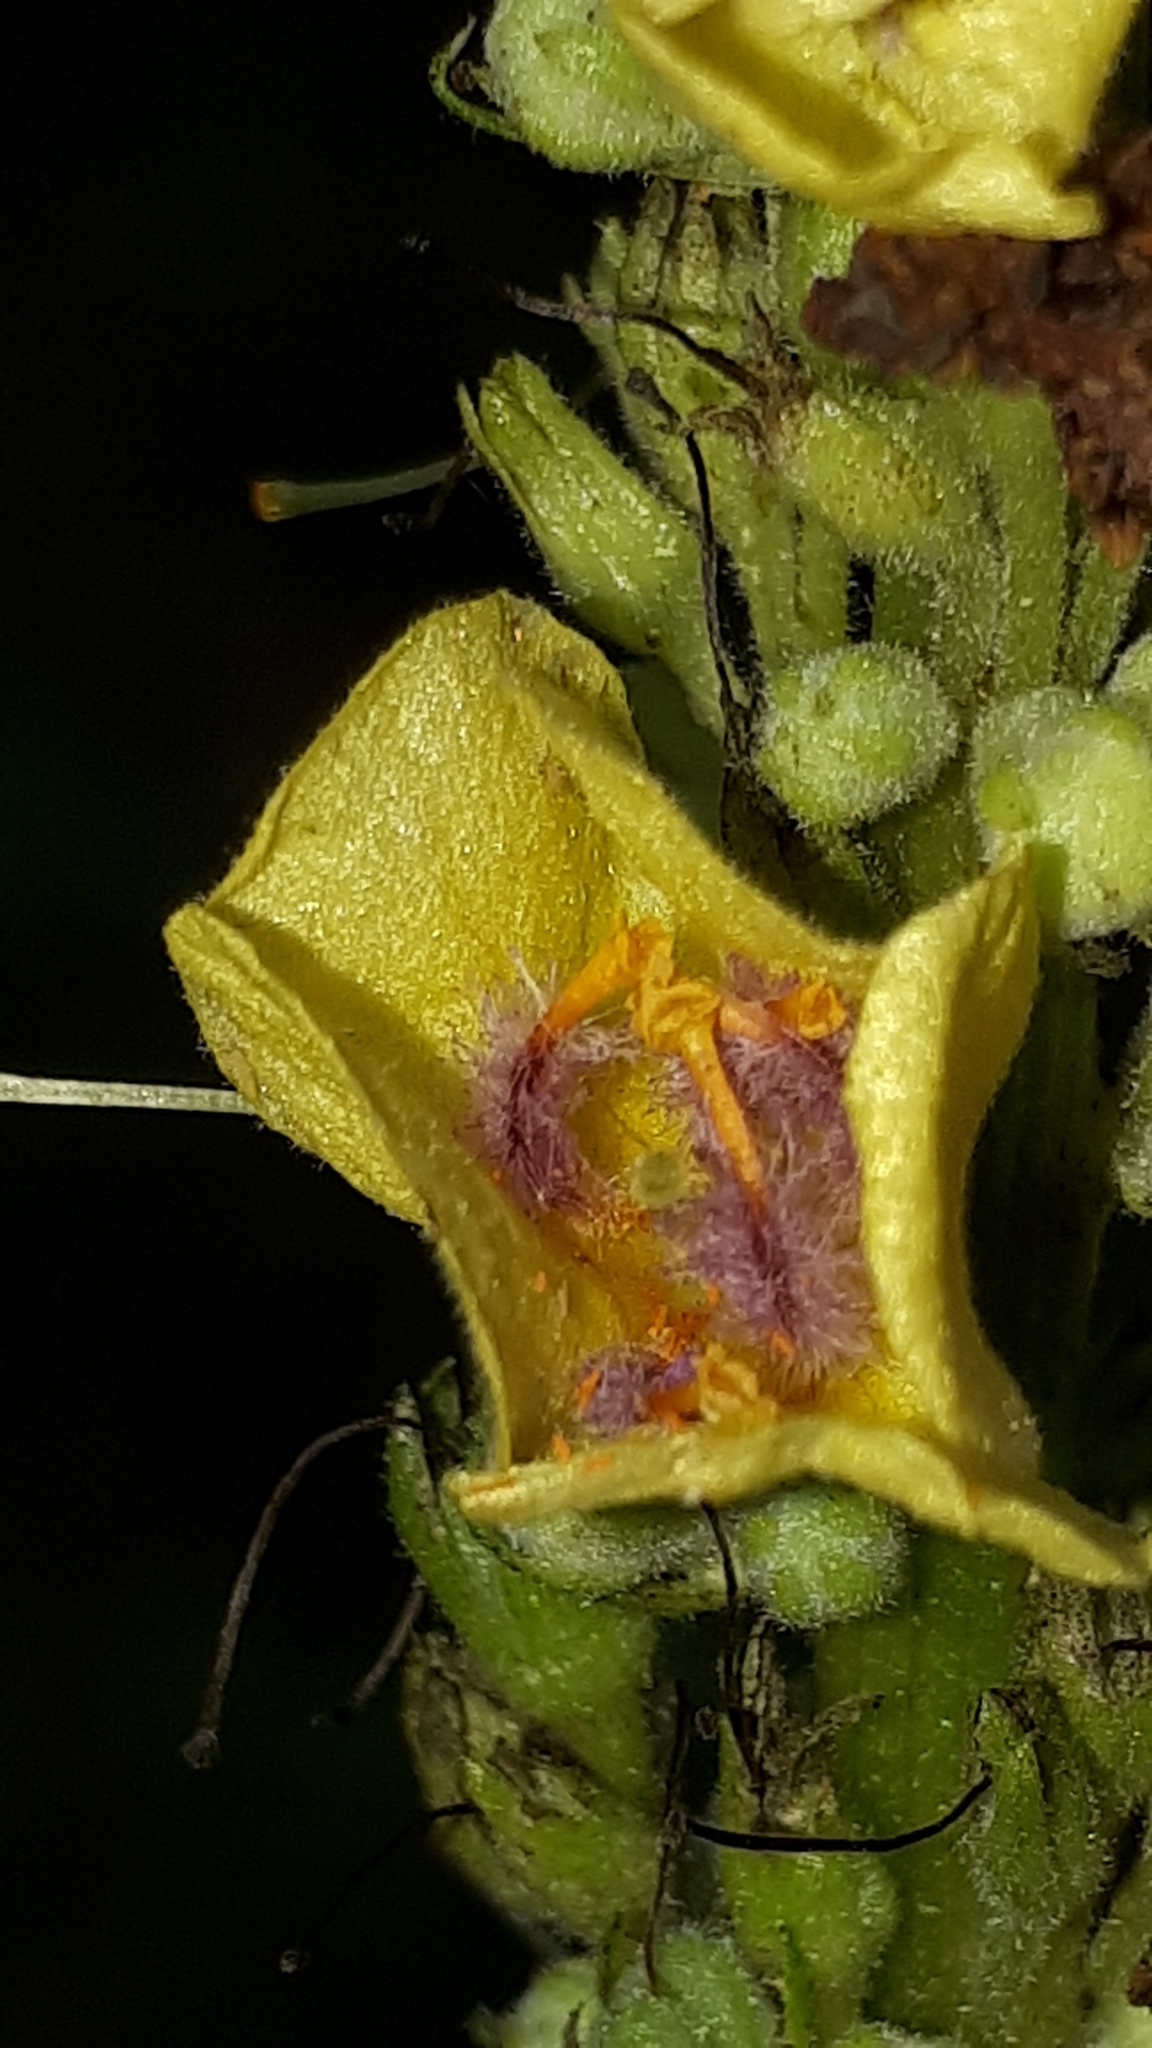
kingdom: Plantae
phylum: Tracheophyta
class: Magnoliopsida
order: Lamiales
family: Scrophulariaceae
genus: Verbascum
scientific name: Verbascum nigrum
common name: Dark mullein
